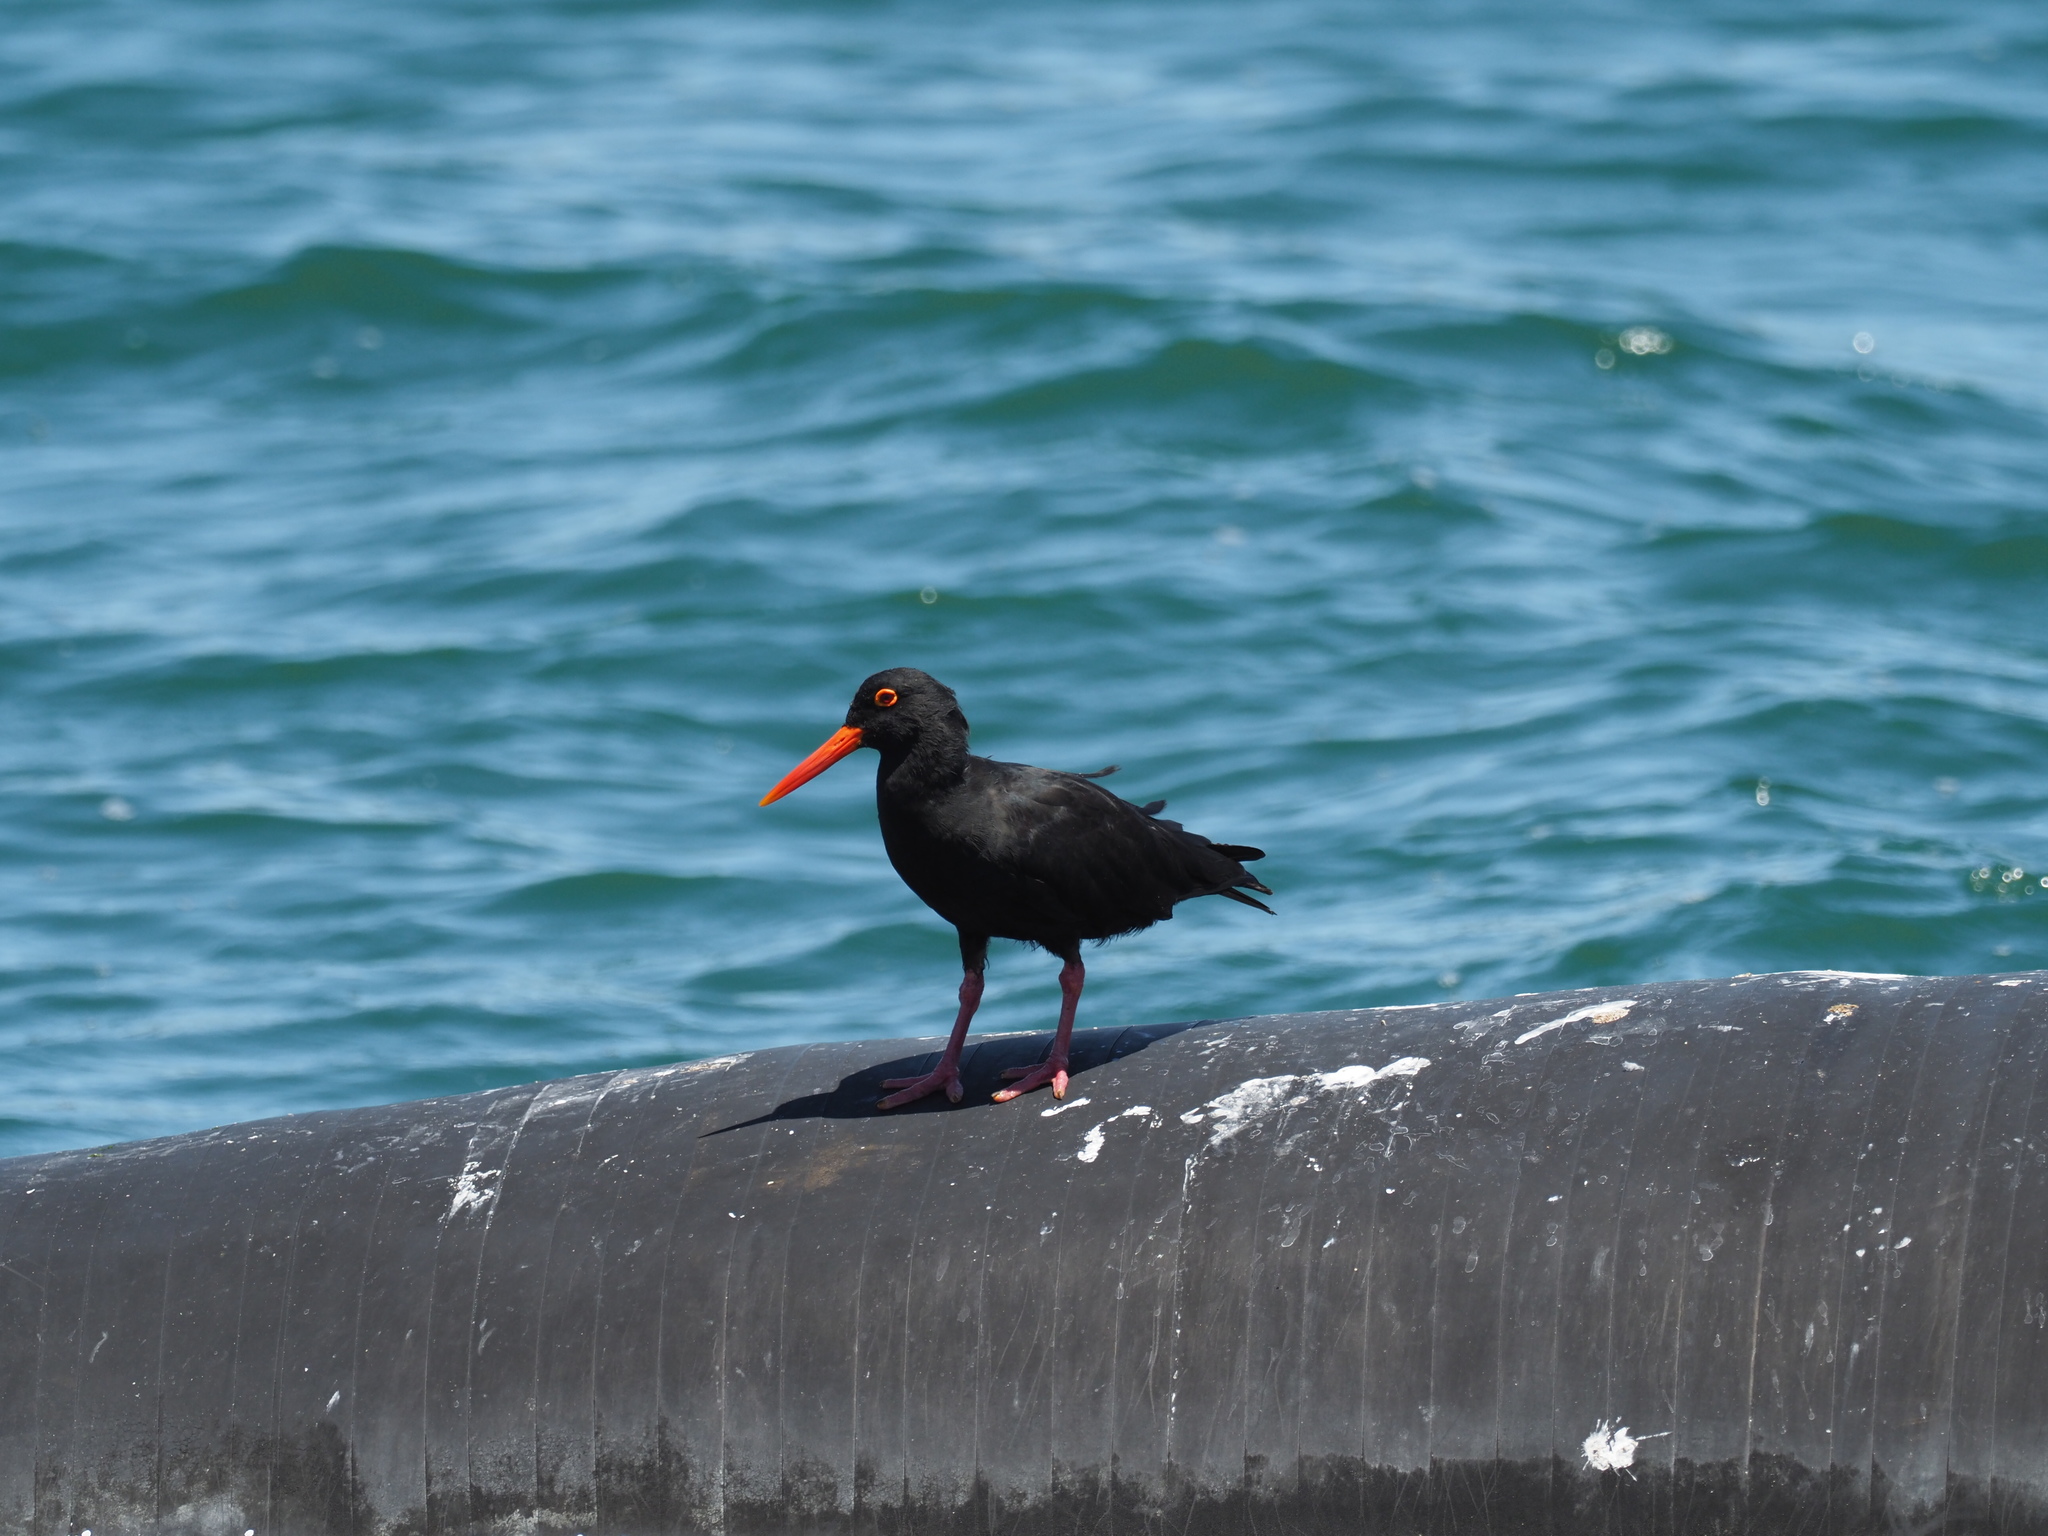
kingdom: Animalia
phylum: Chordata
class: Aves
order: Charadriiformes
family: Haematopodidae
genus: Haematopus
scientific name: Haematopus moquini
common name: African oystercatcher
